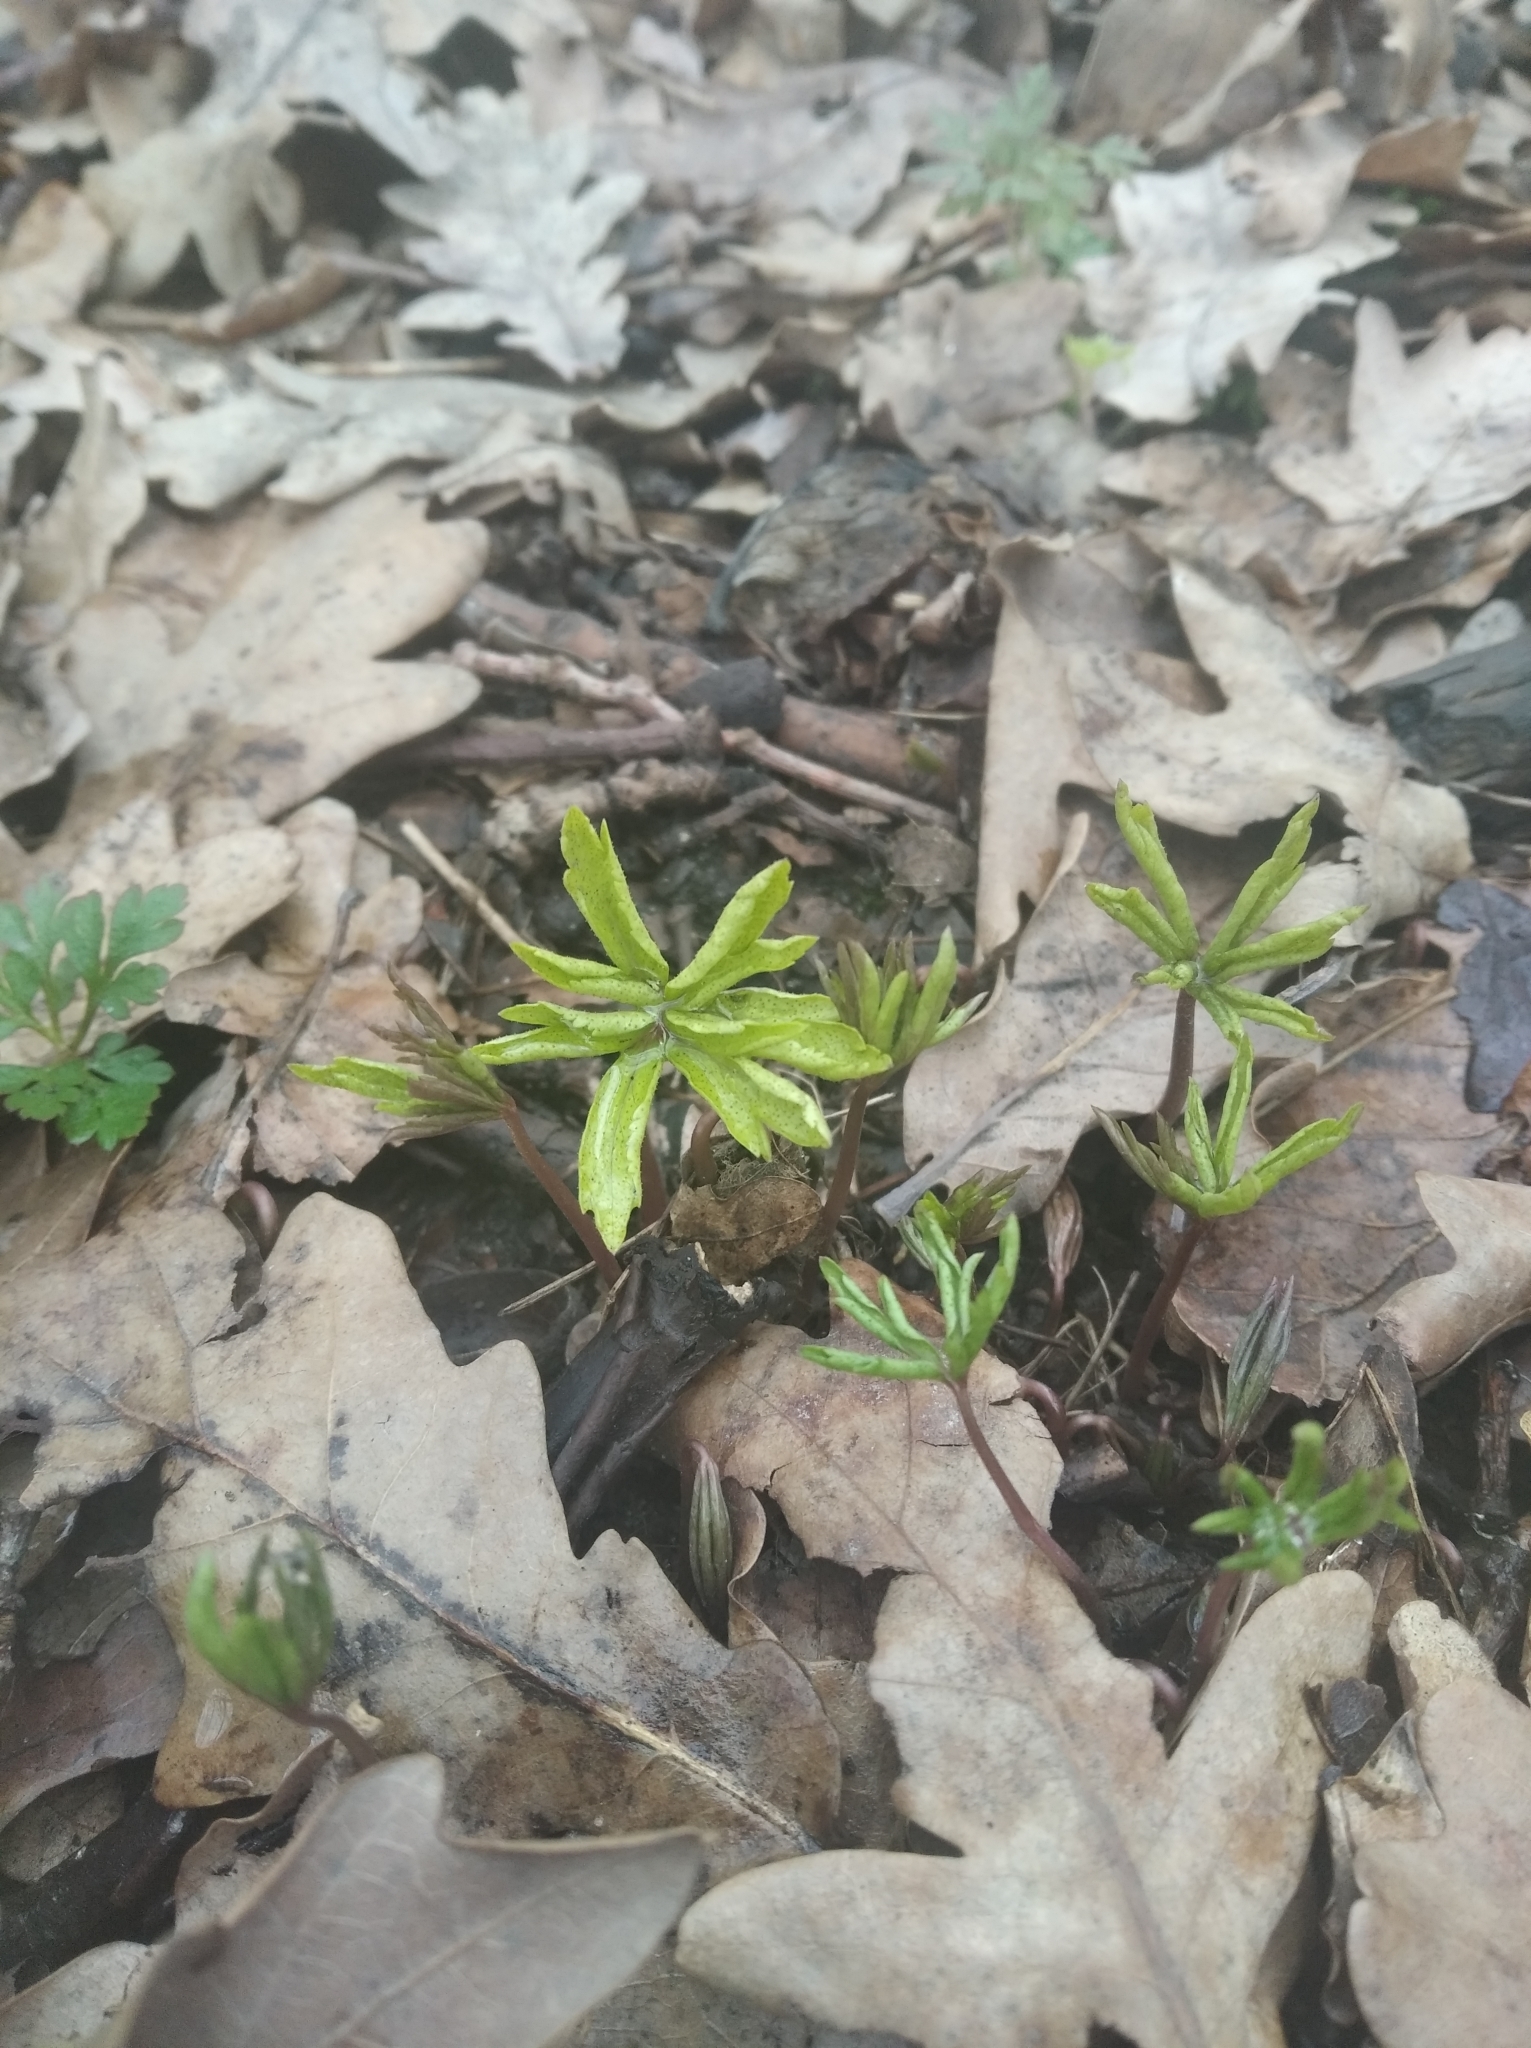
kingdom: Plantae
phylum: Tracheophyta
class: Magnoliopsida
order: Ranunculales
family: Ranunculaceae
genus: Anemone
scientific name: Anemone ranunculoides
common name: Yellow anemone
